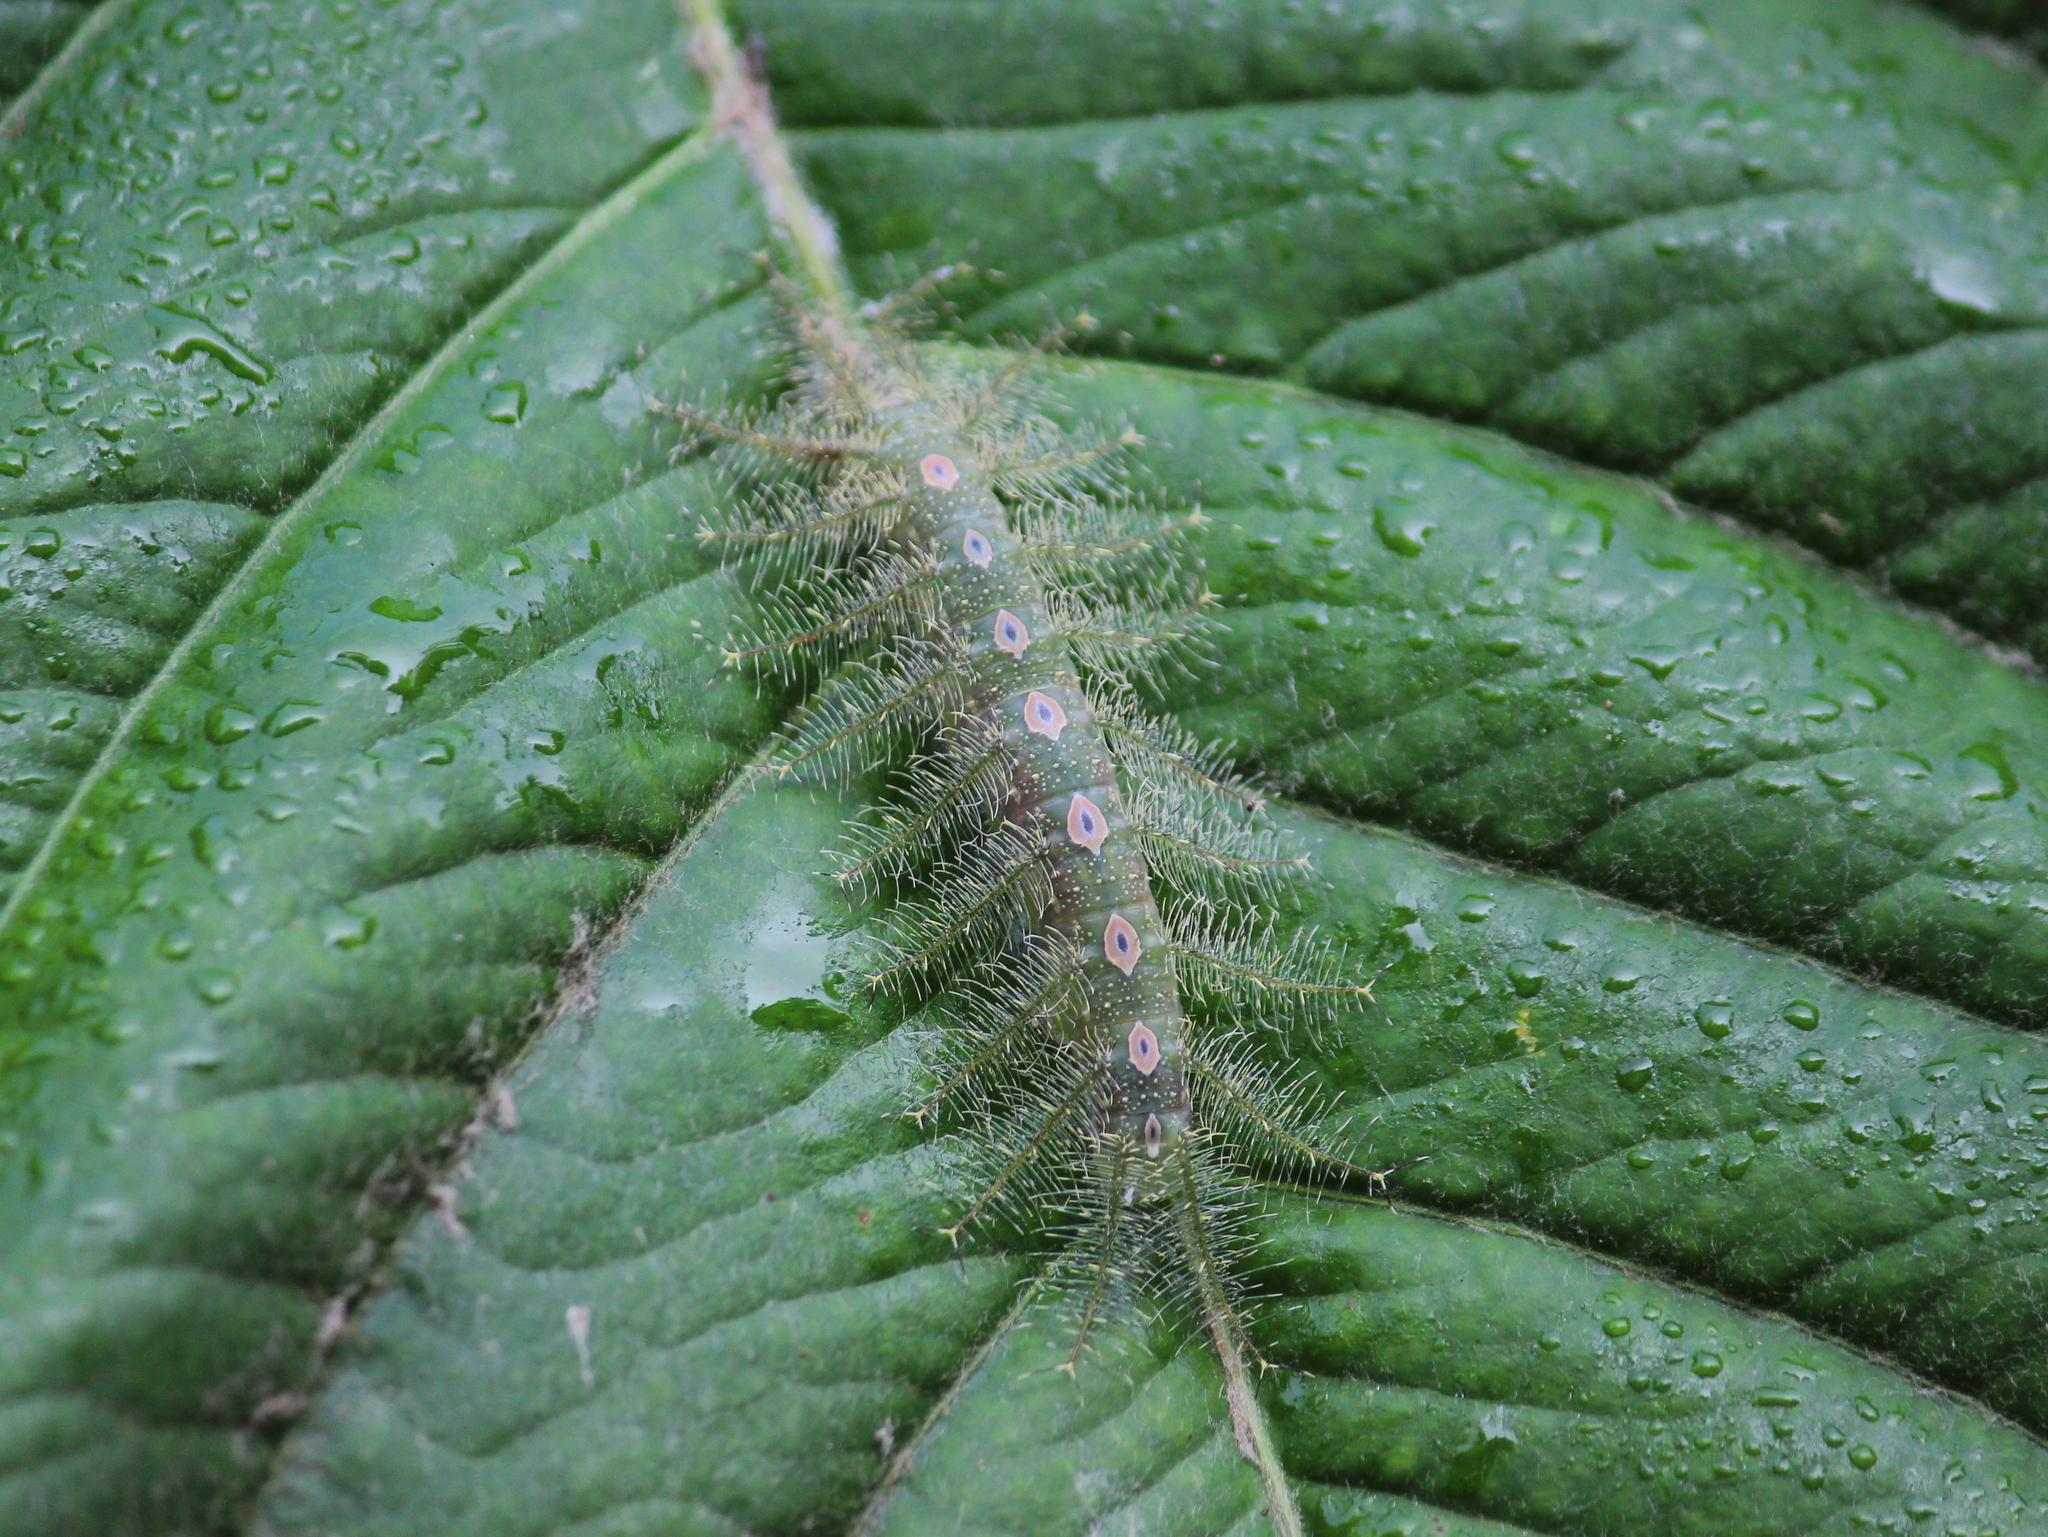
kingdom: Animalia
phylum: Arthropoda
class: Insecta
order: Lepidoptera
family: Nymphalidae
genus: Tanaecia
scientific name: Tanaecia lepidea
